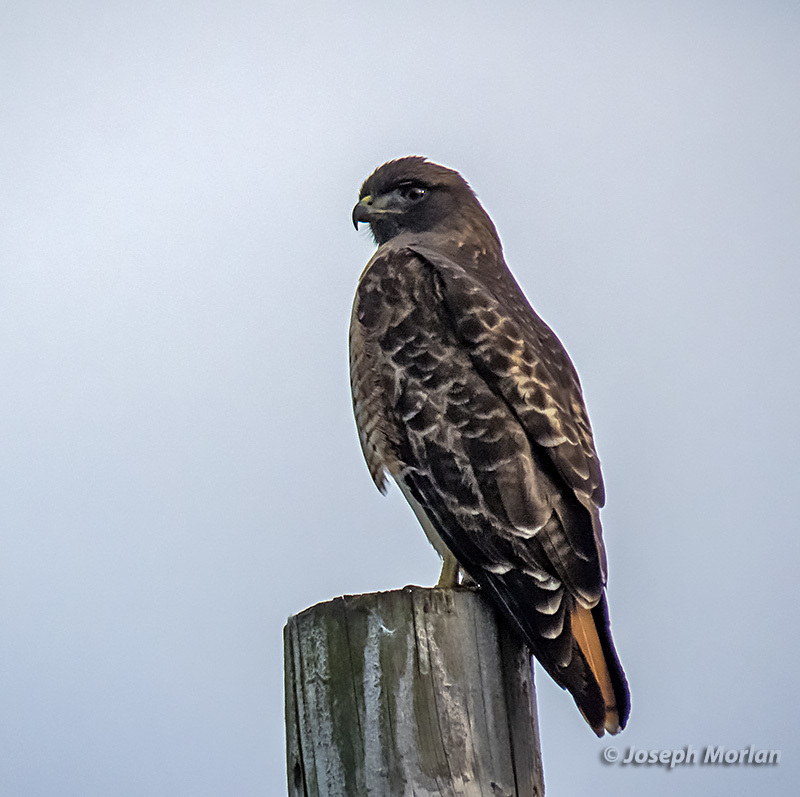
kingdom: Animalia
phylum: Chordata
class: Aves
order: Accipitriformes
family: Accipitridae
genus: Buteo
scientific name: Buteo jamaicensis
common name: Red-tailed hawk
